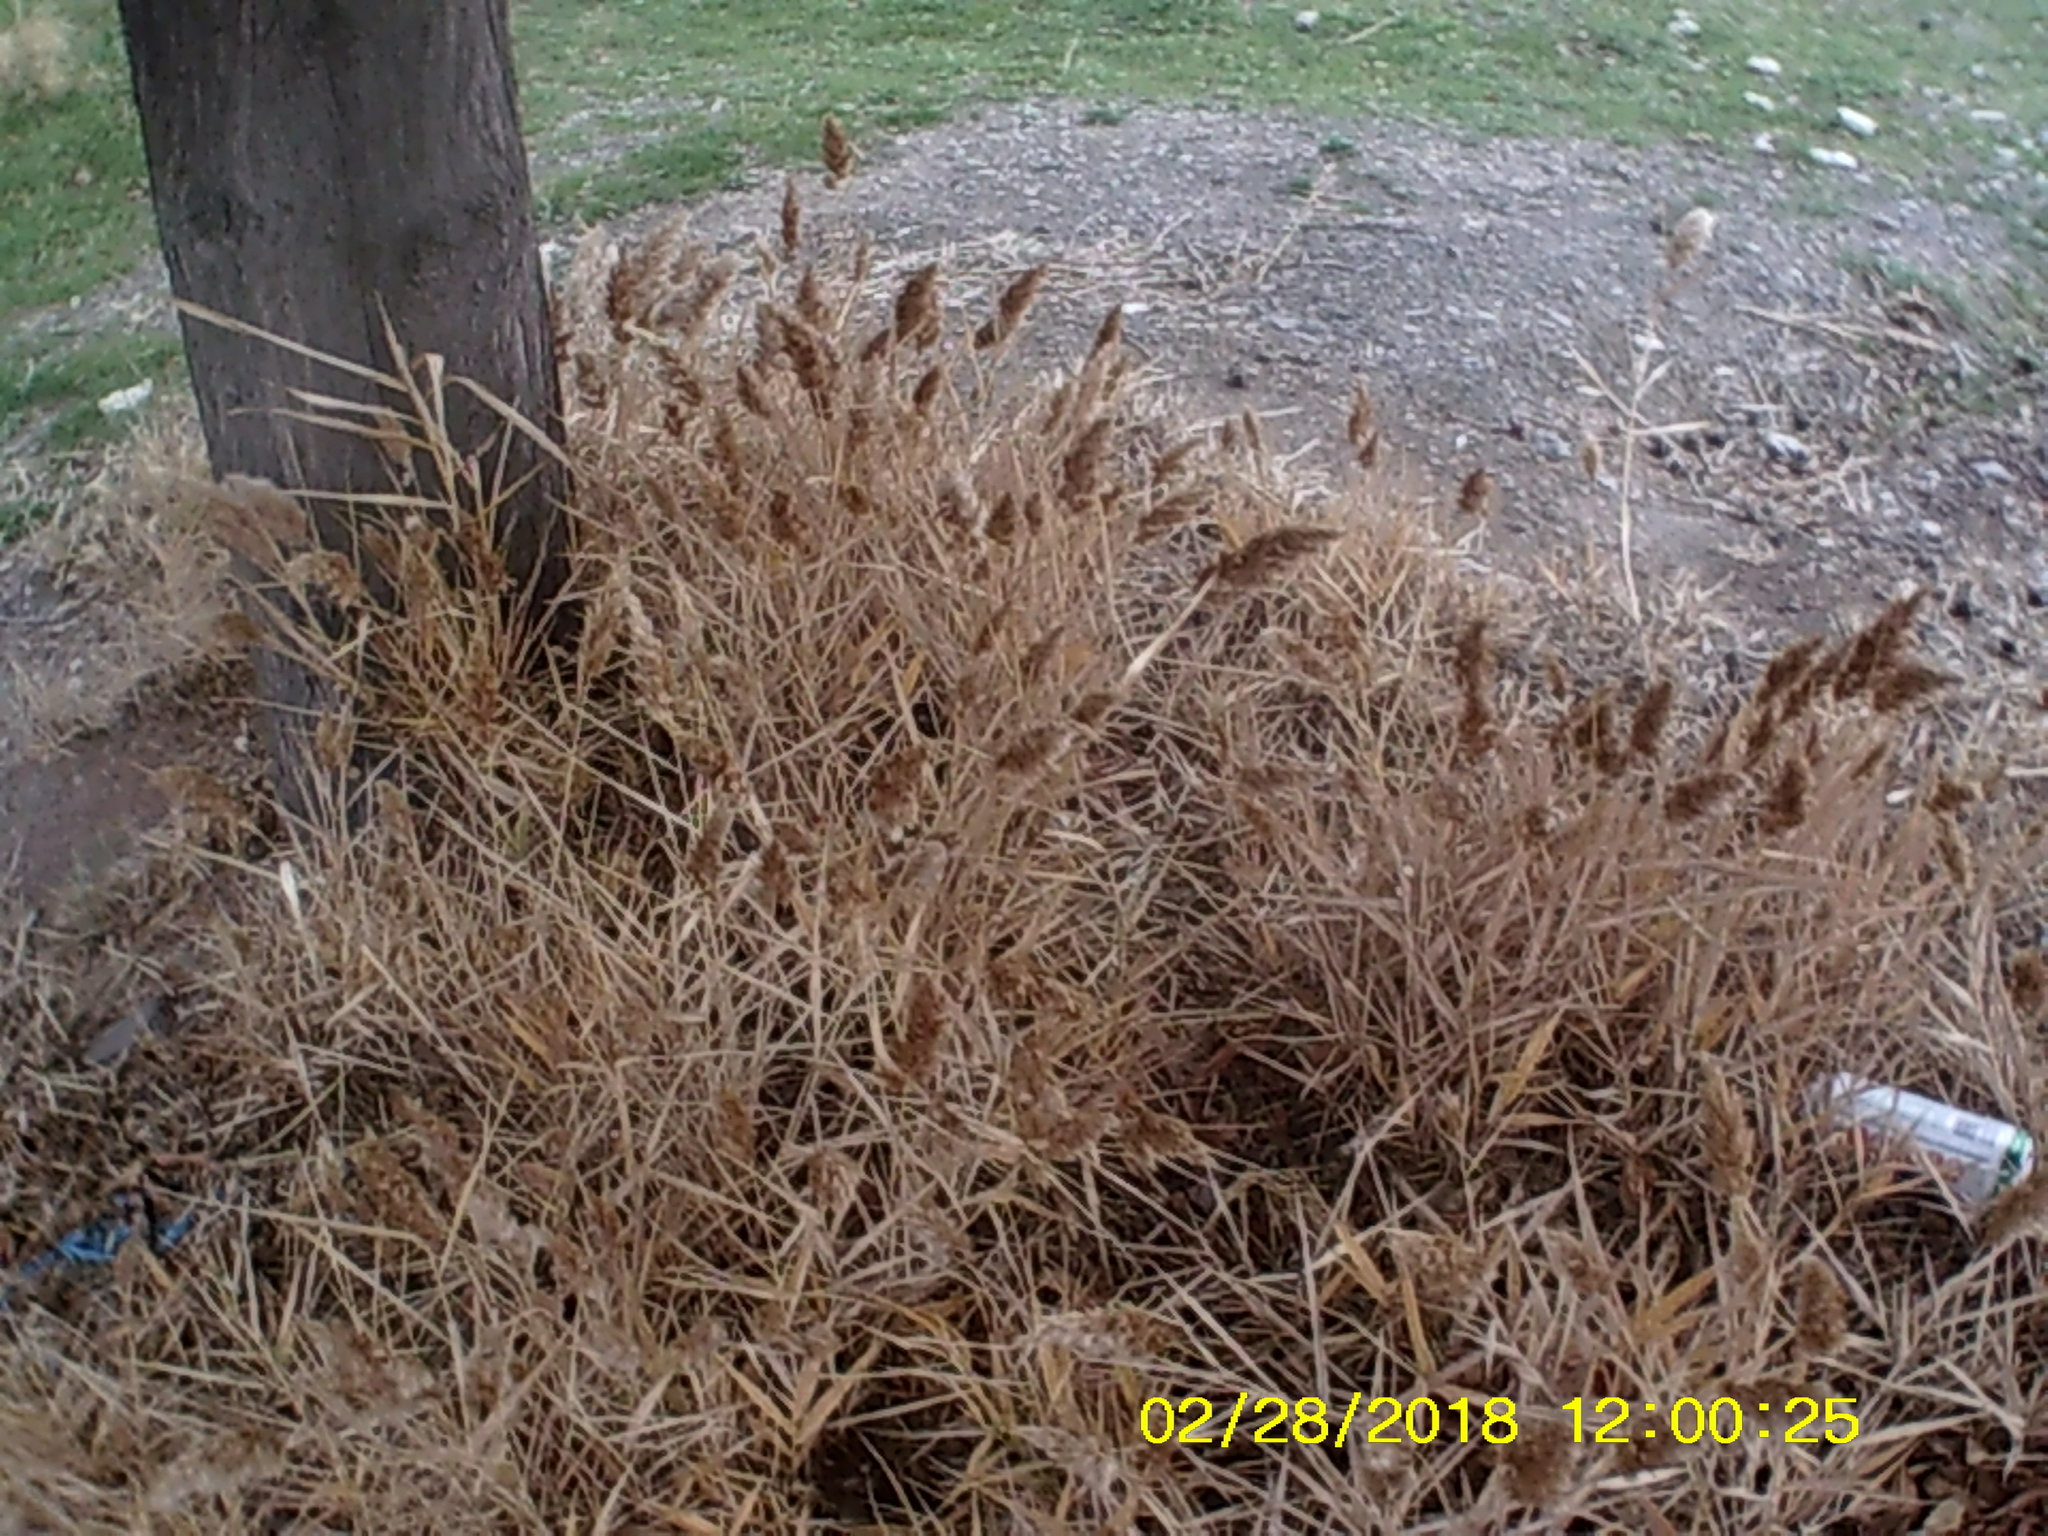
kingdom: Plantae
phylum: Tracheophyta
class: Liliopsida
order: Poales
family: Poaceae
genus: Phragmites
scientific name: Phragmites australis
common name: Common reed
